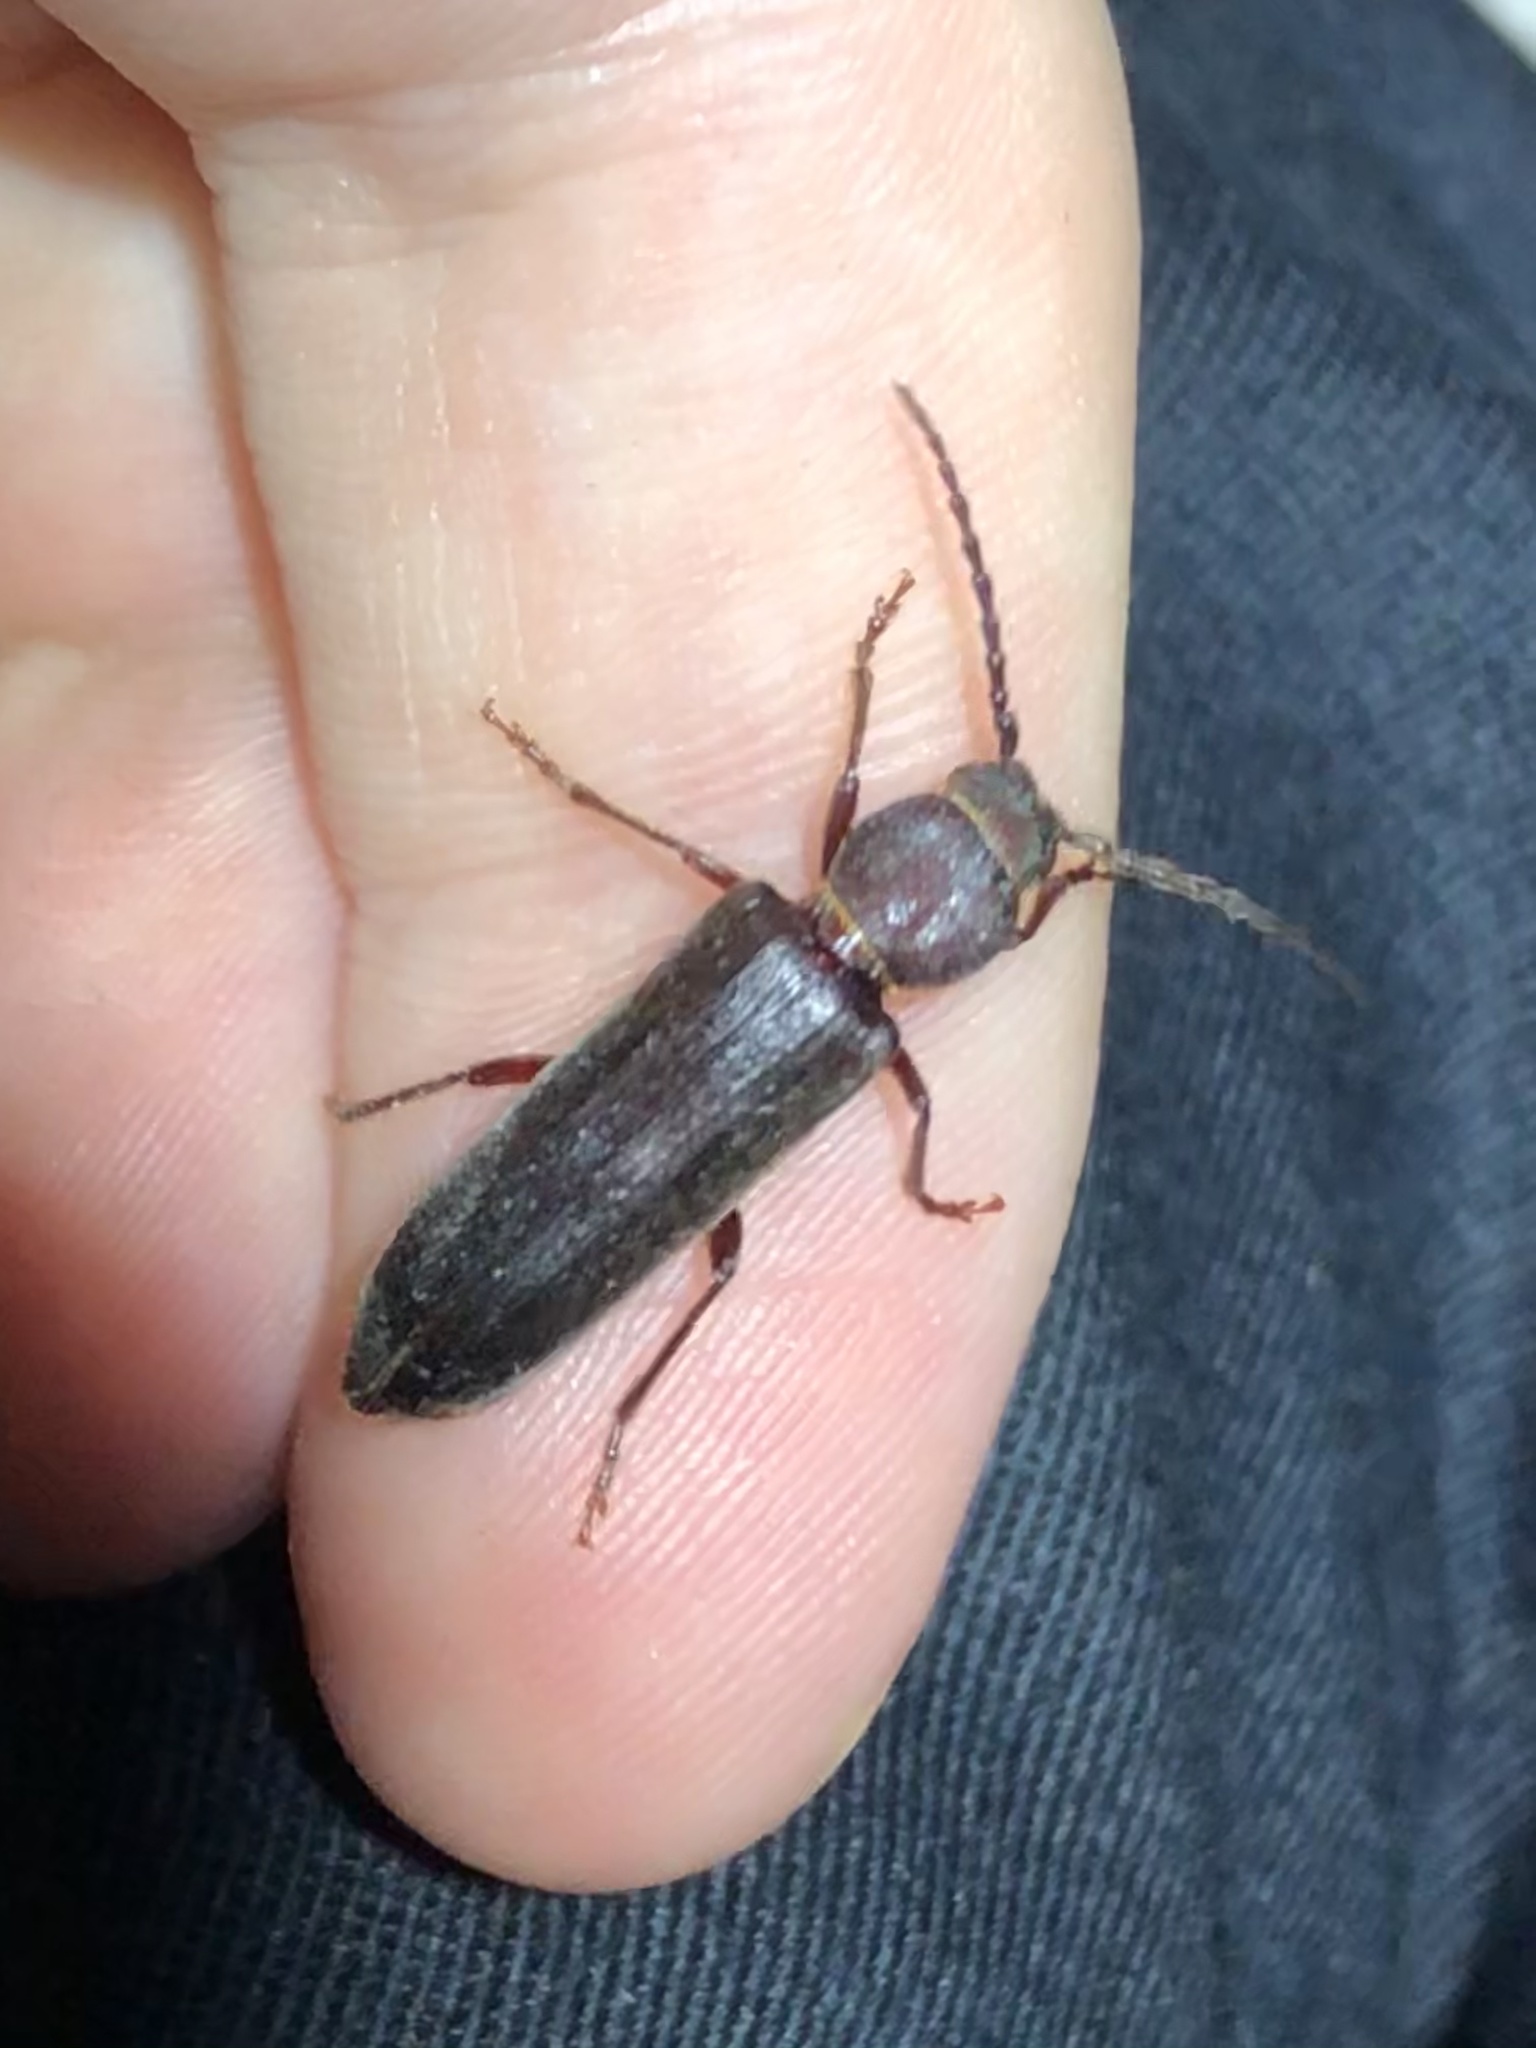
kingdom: Animalia
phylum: Arthropoda
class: Insecta
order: Coleoptera
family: Cerambycidae
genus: Megasemum
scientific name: Megasemum asperum
